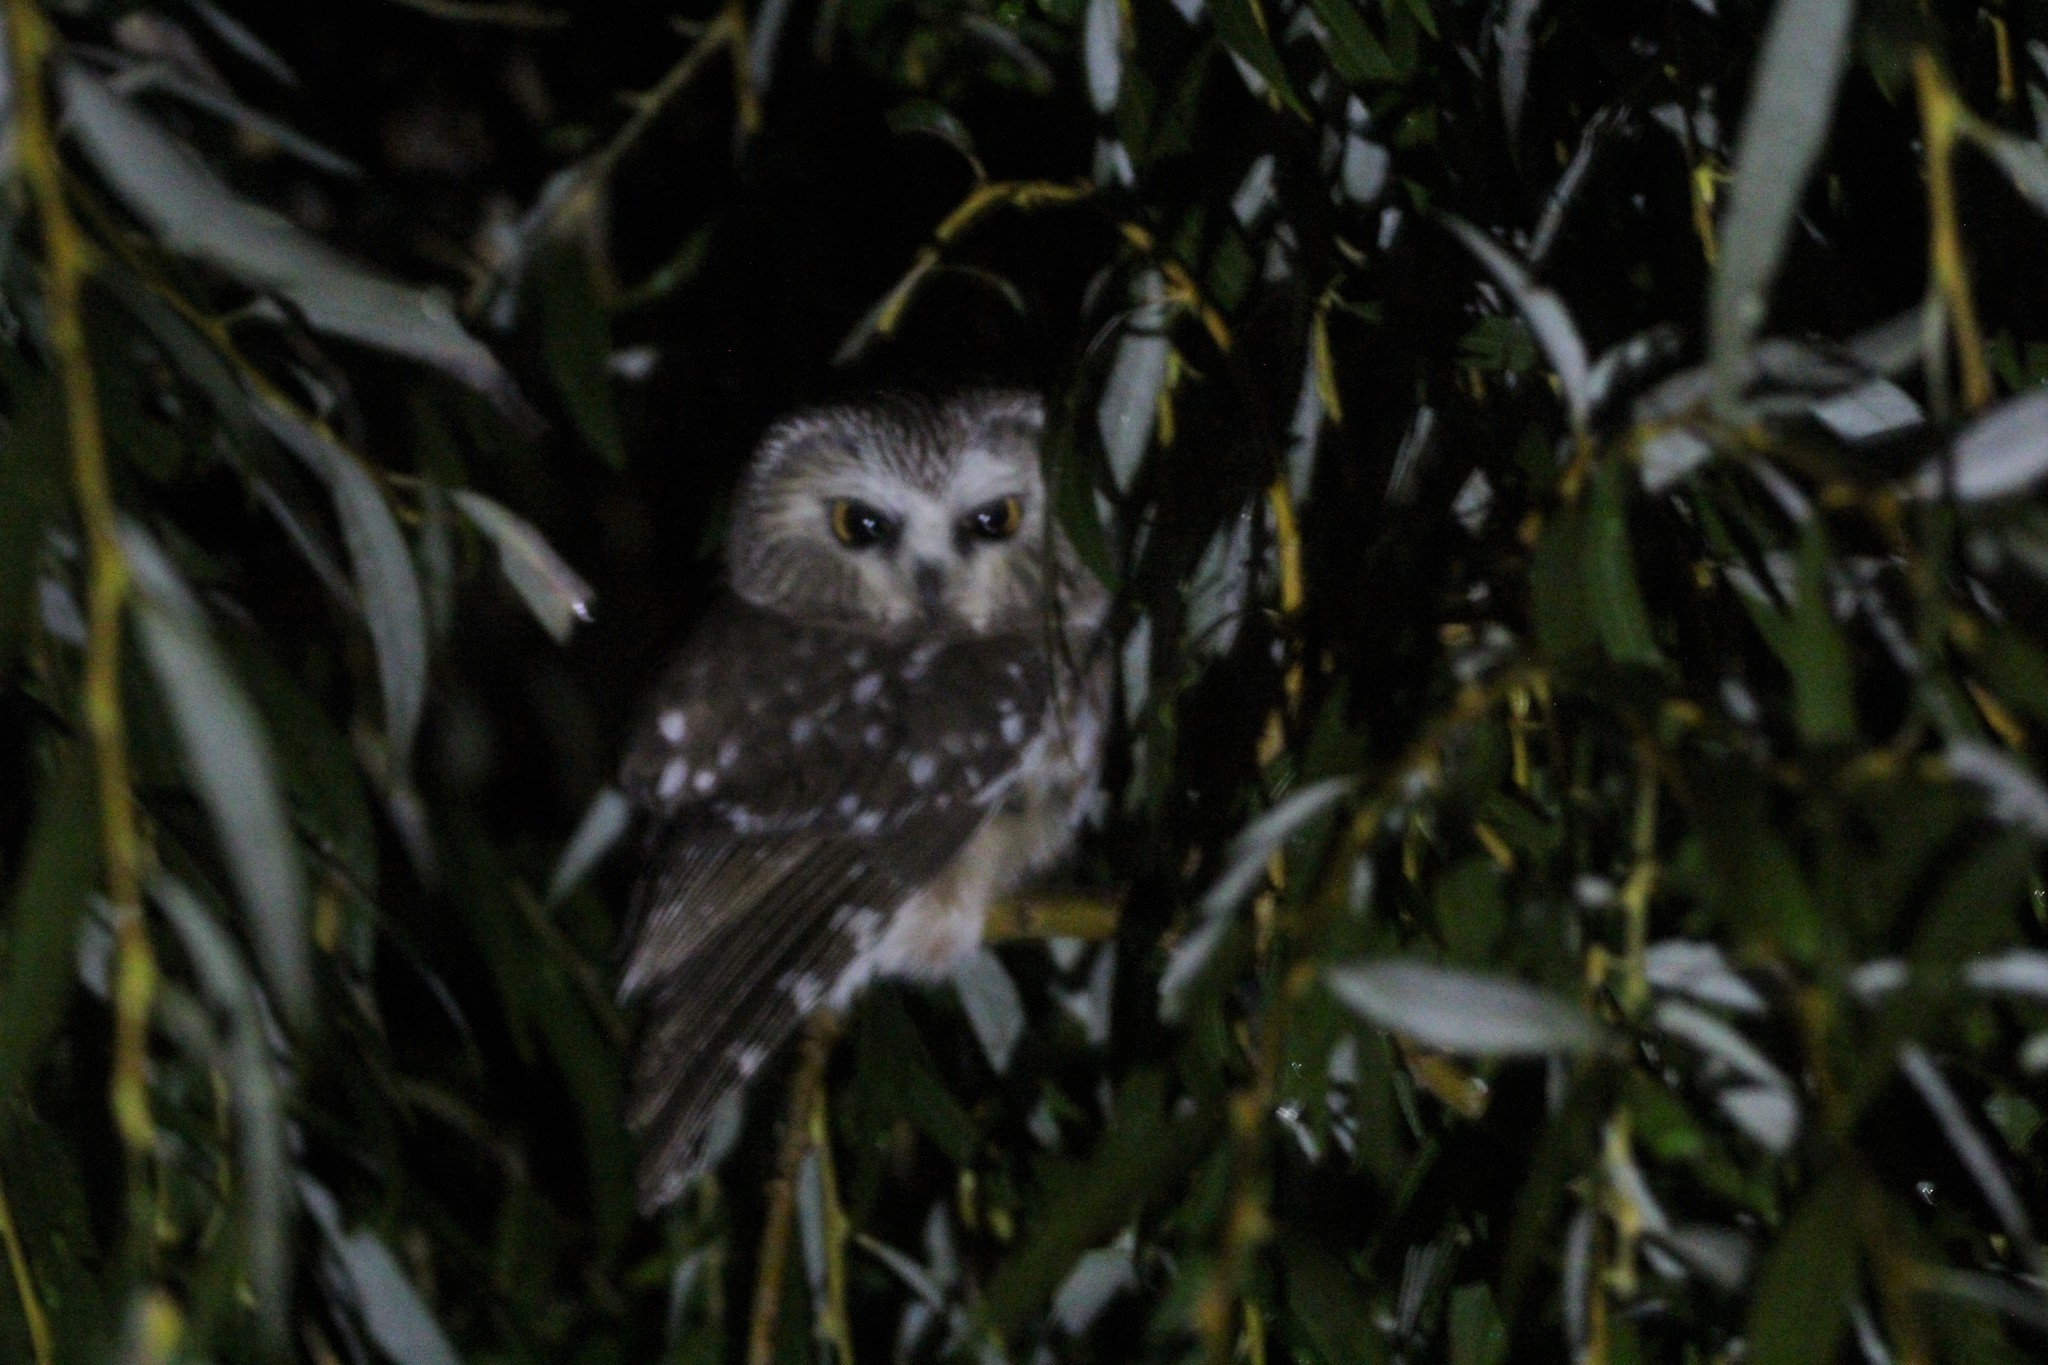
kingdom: Animalia
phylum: Chordata
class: Aves
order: Strigiformes
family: Strigidae
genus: Aegolius
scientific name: Aegolius acadicus
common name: Northern saw-whet owl
